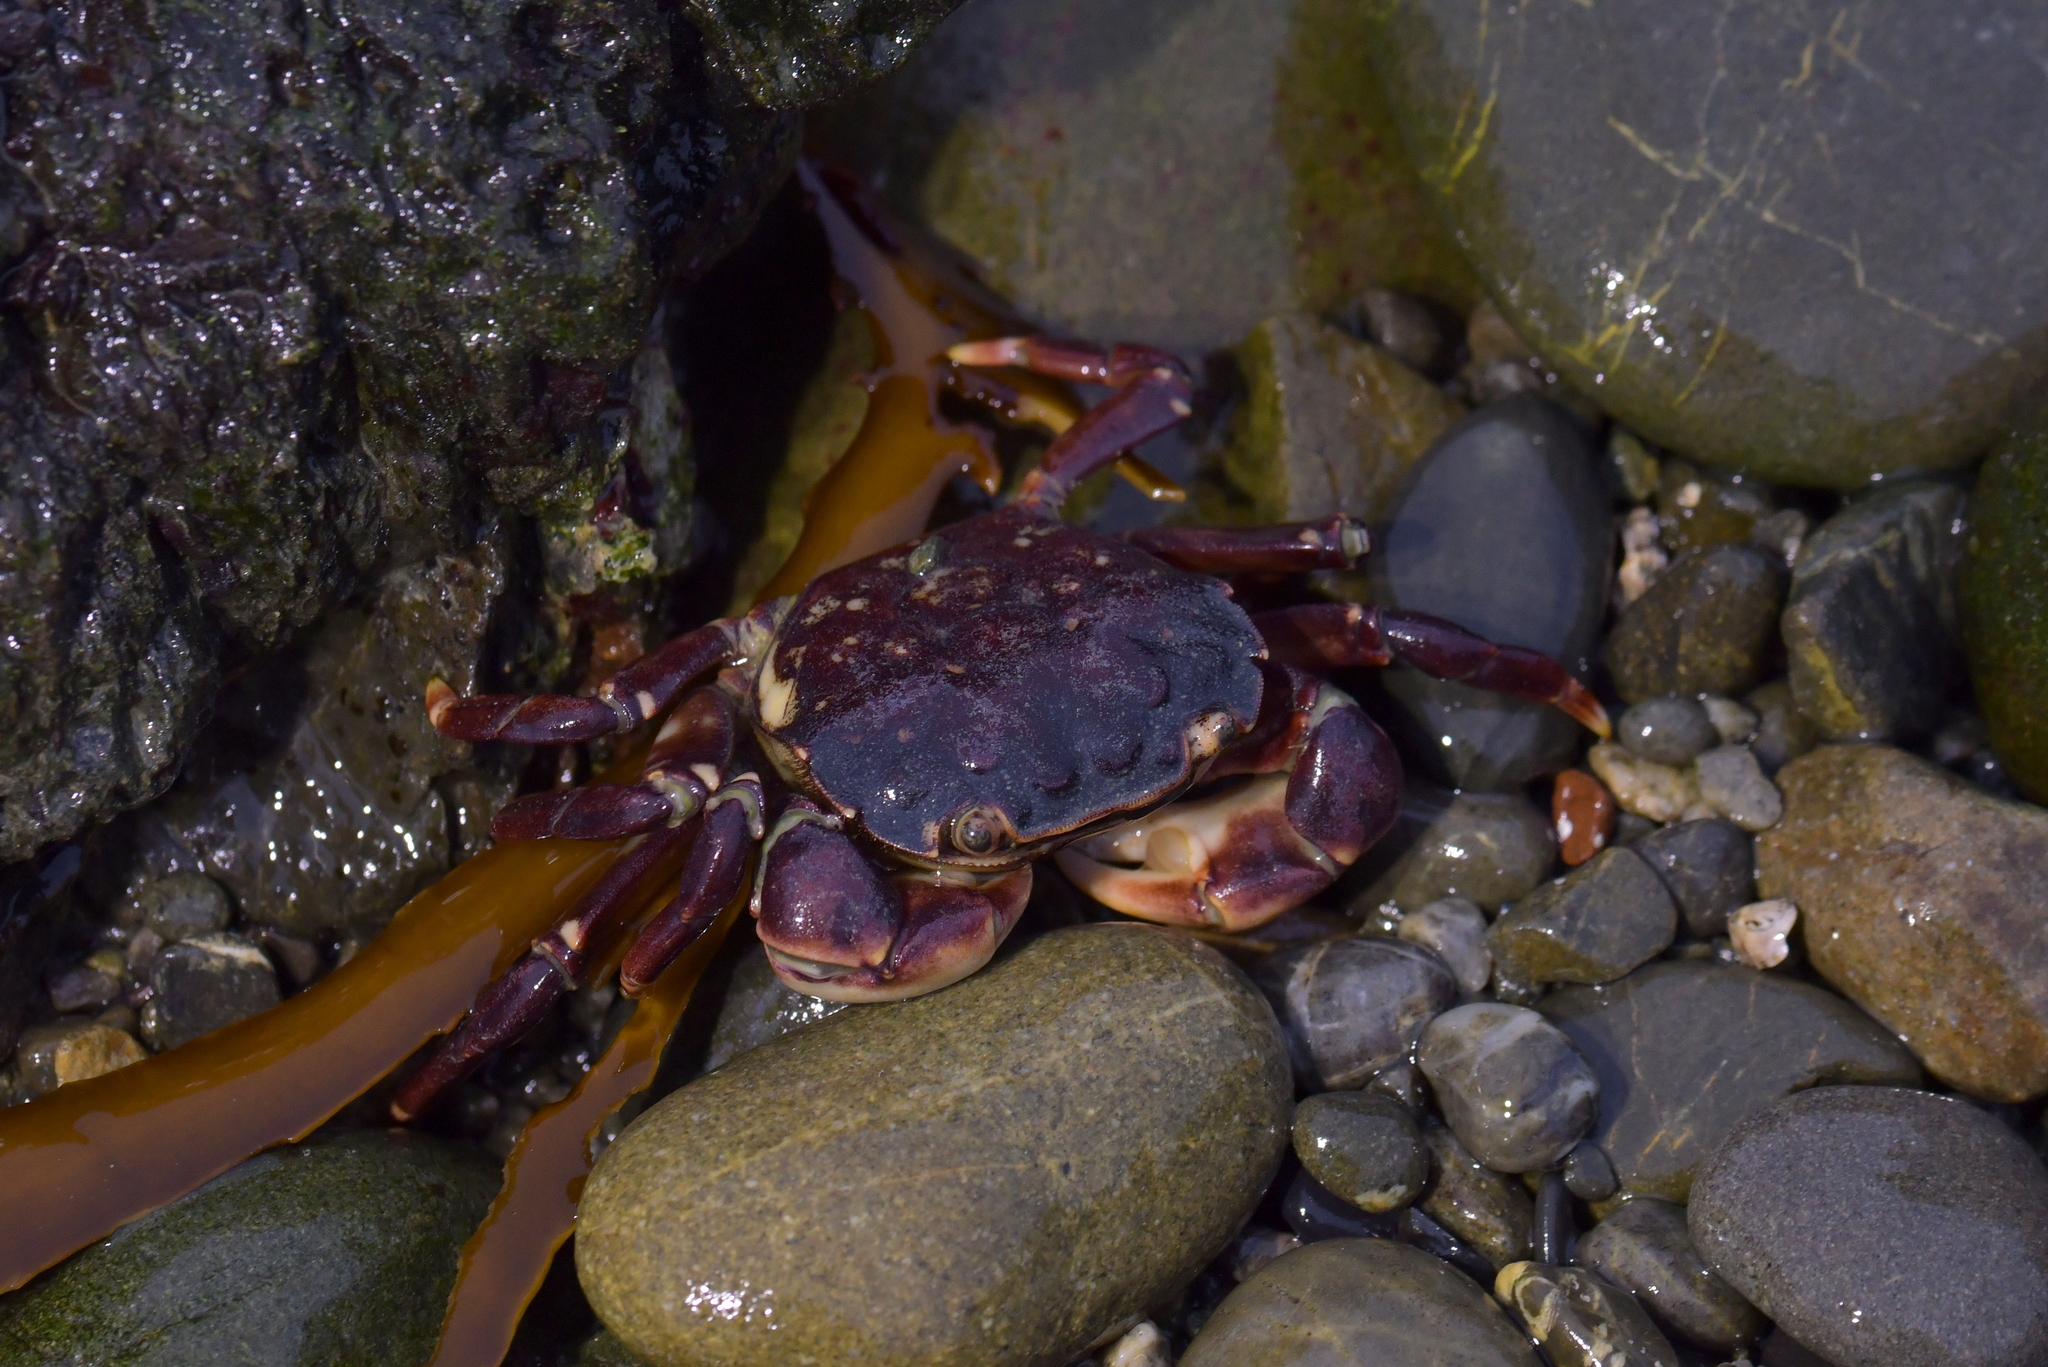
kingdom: Animalia
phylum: Arthropoda
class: Malacostraca
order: Decapoda
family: Varunidae
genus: Hemigrapsus
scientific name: Hemigrapsus sexdentatus
